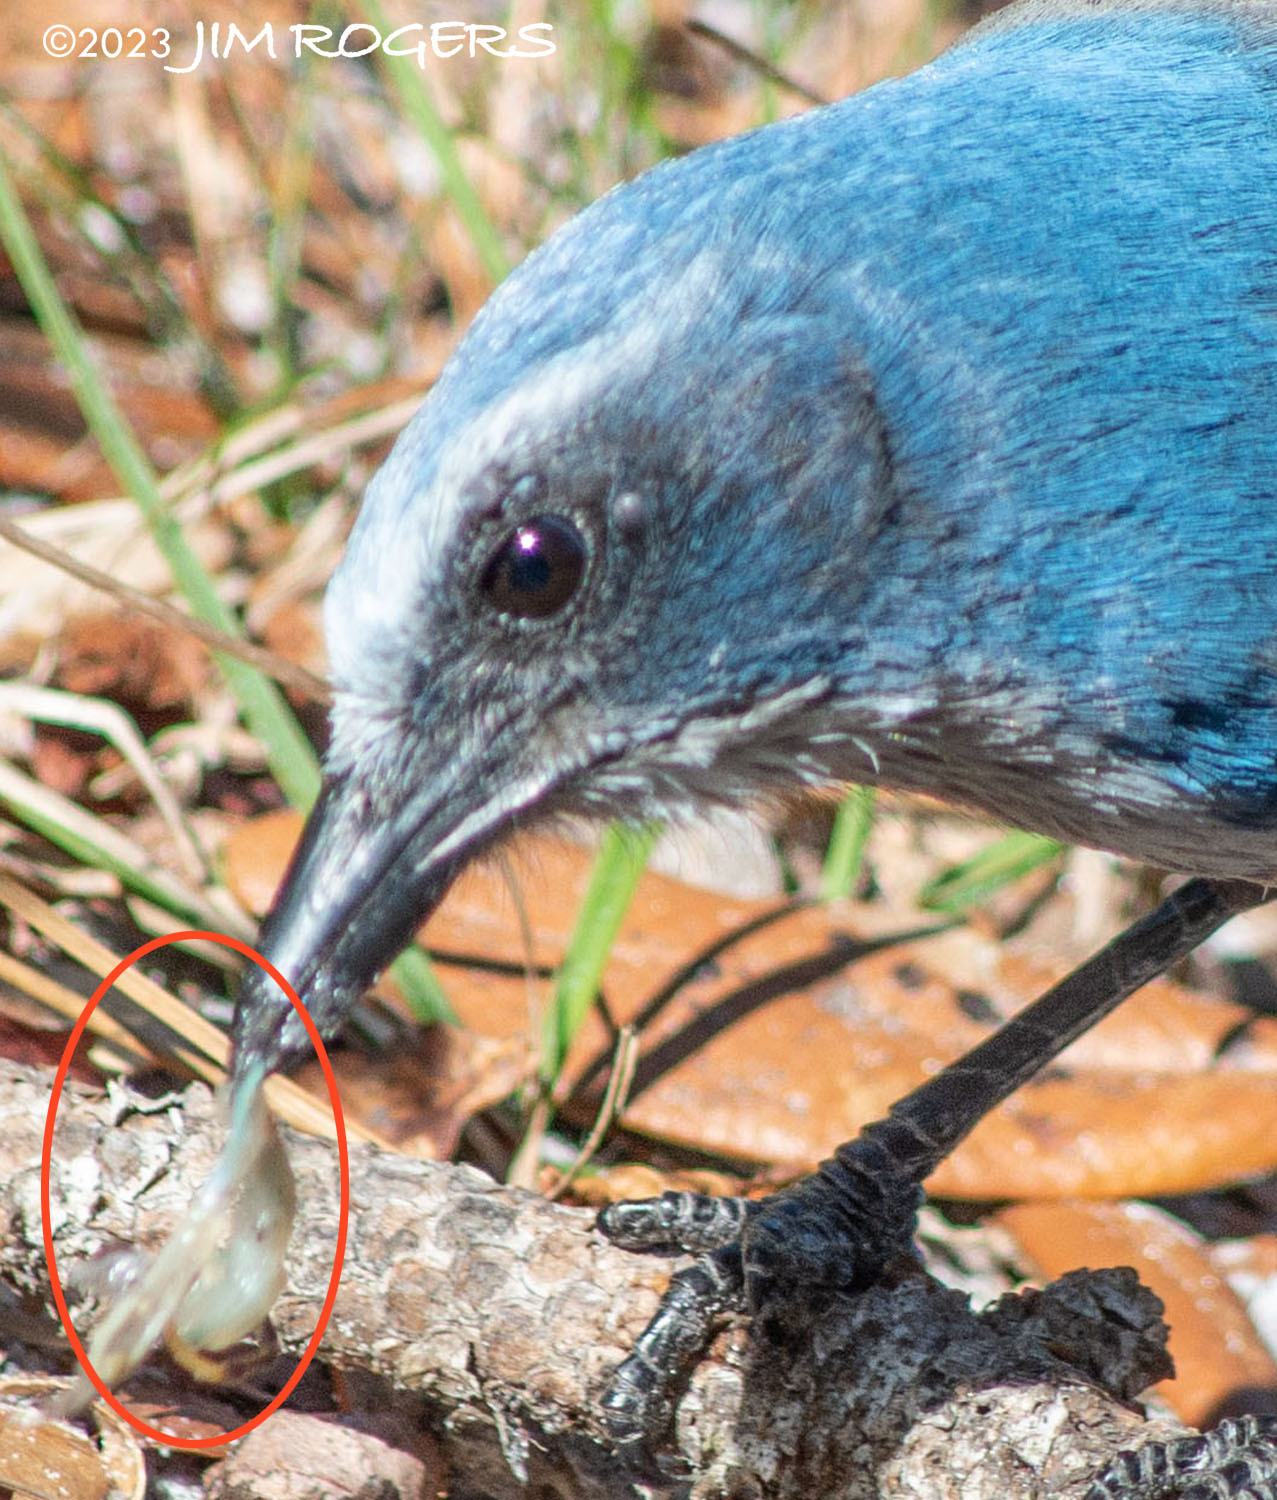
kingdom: Animalia
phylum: Chordata
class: Amphibia
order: Anura
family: Hylidae
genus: Osteopilus
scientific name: Osteopilus septentrionalis
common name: Cuban treefrog
